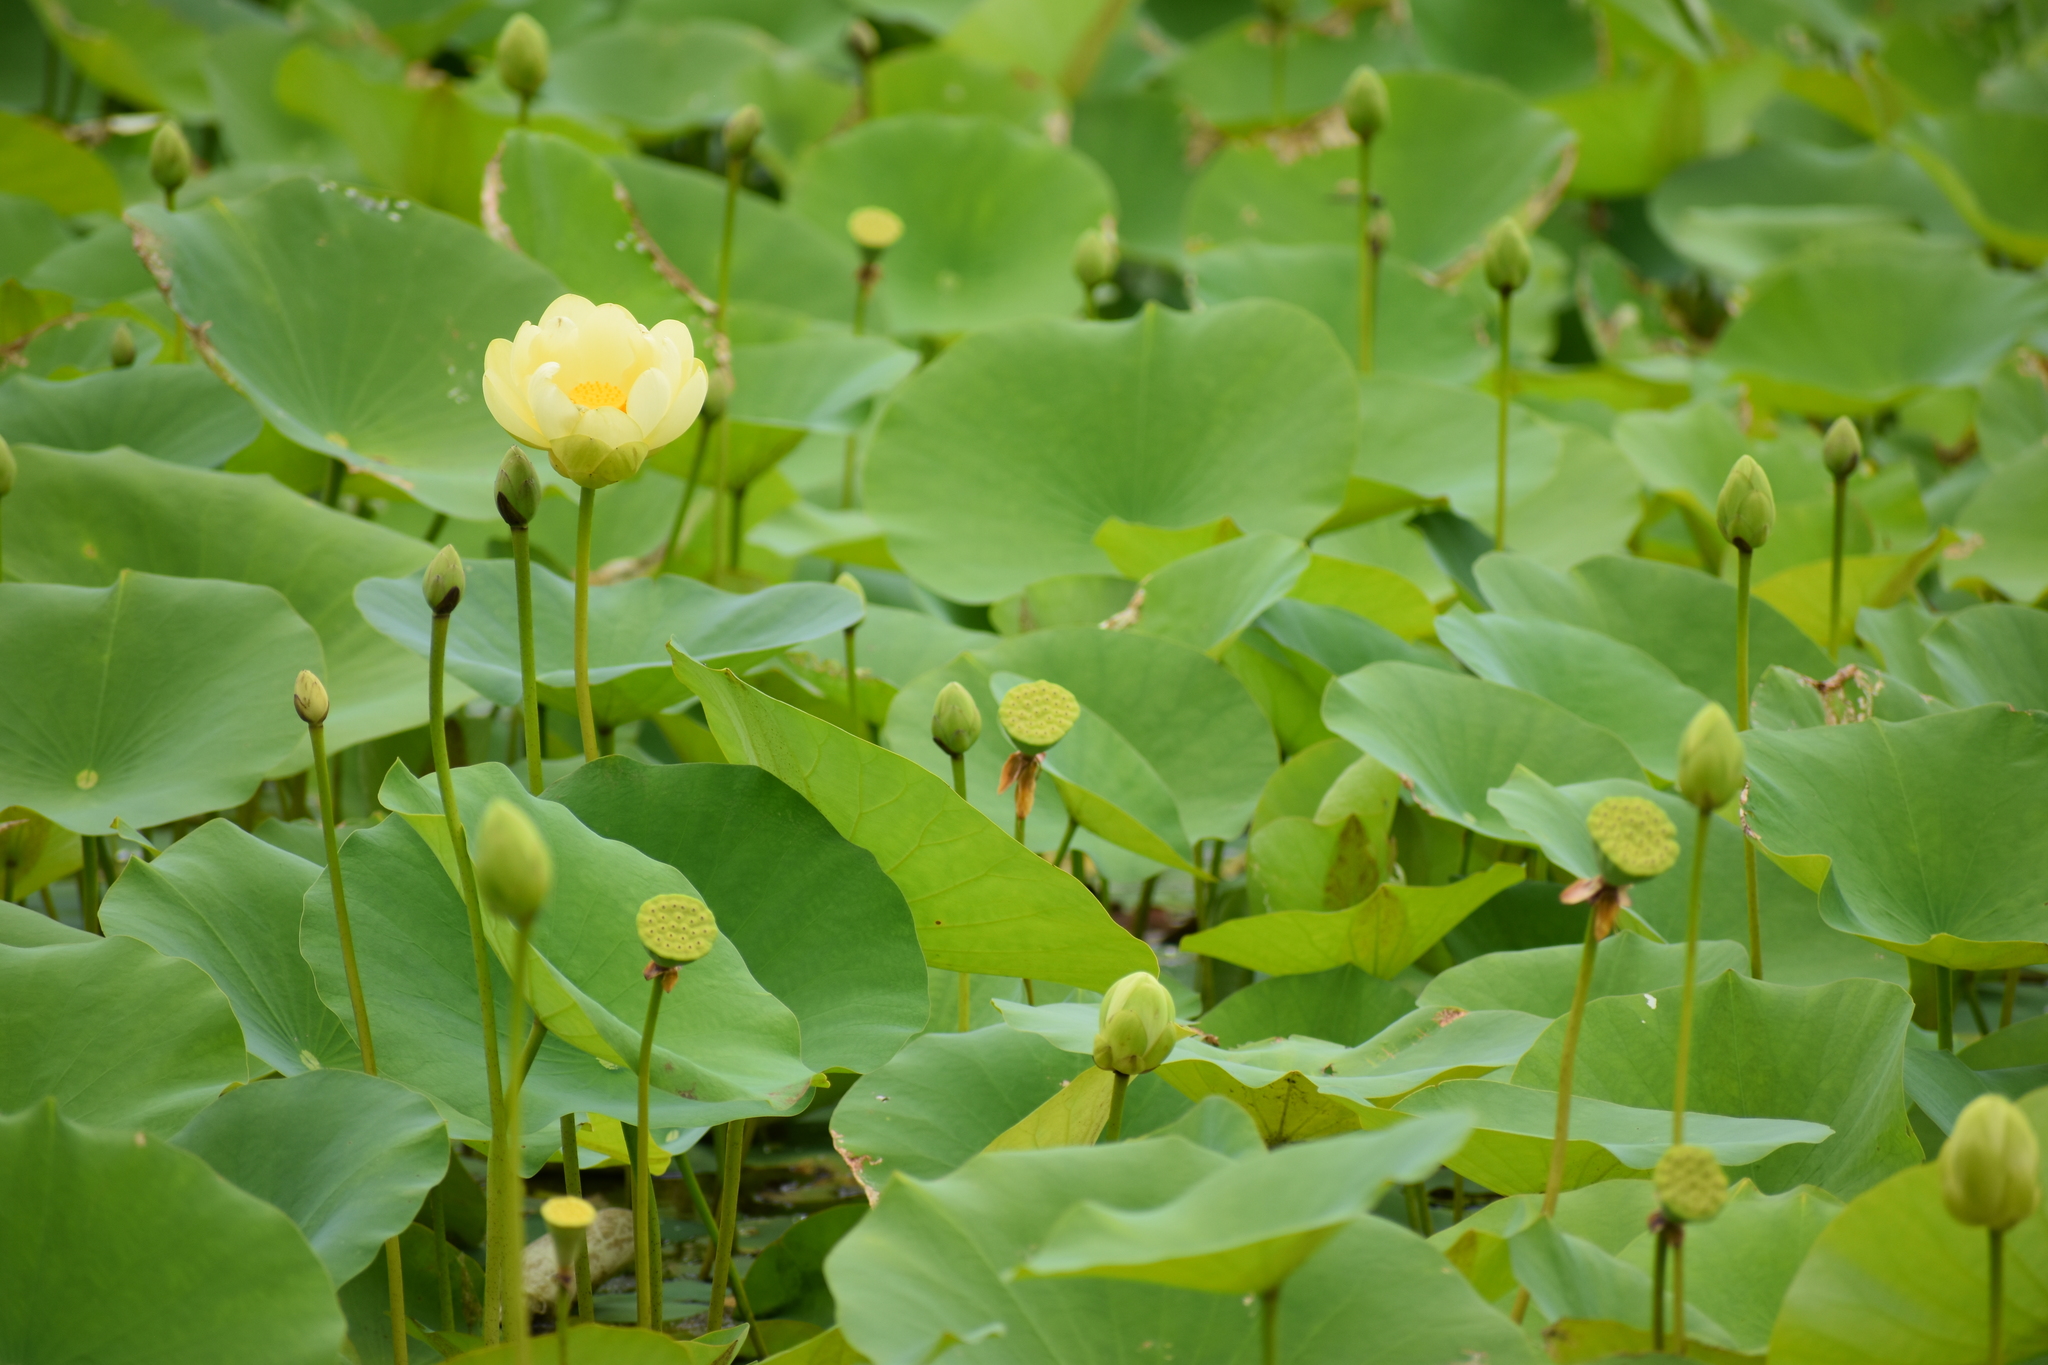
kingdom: Plantae
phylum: Tracheophyta
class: Magnoliopsida
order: Proteales
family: Nelumbonaceae
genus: Nelumbo
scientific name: Nelumbo lutea
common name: American lotus
